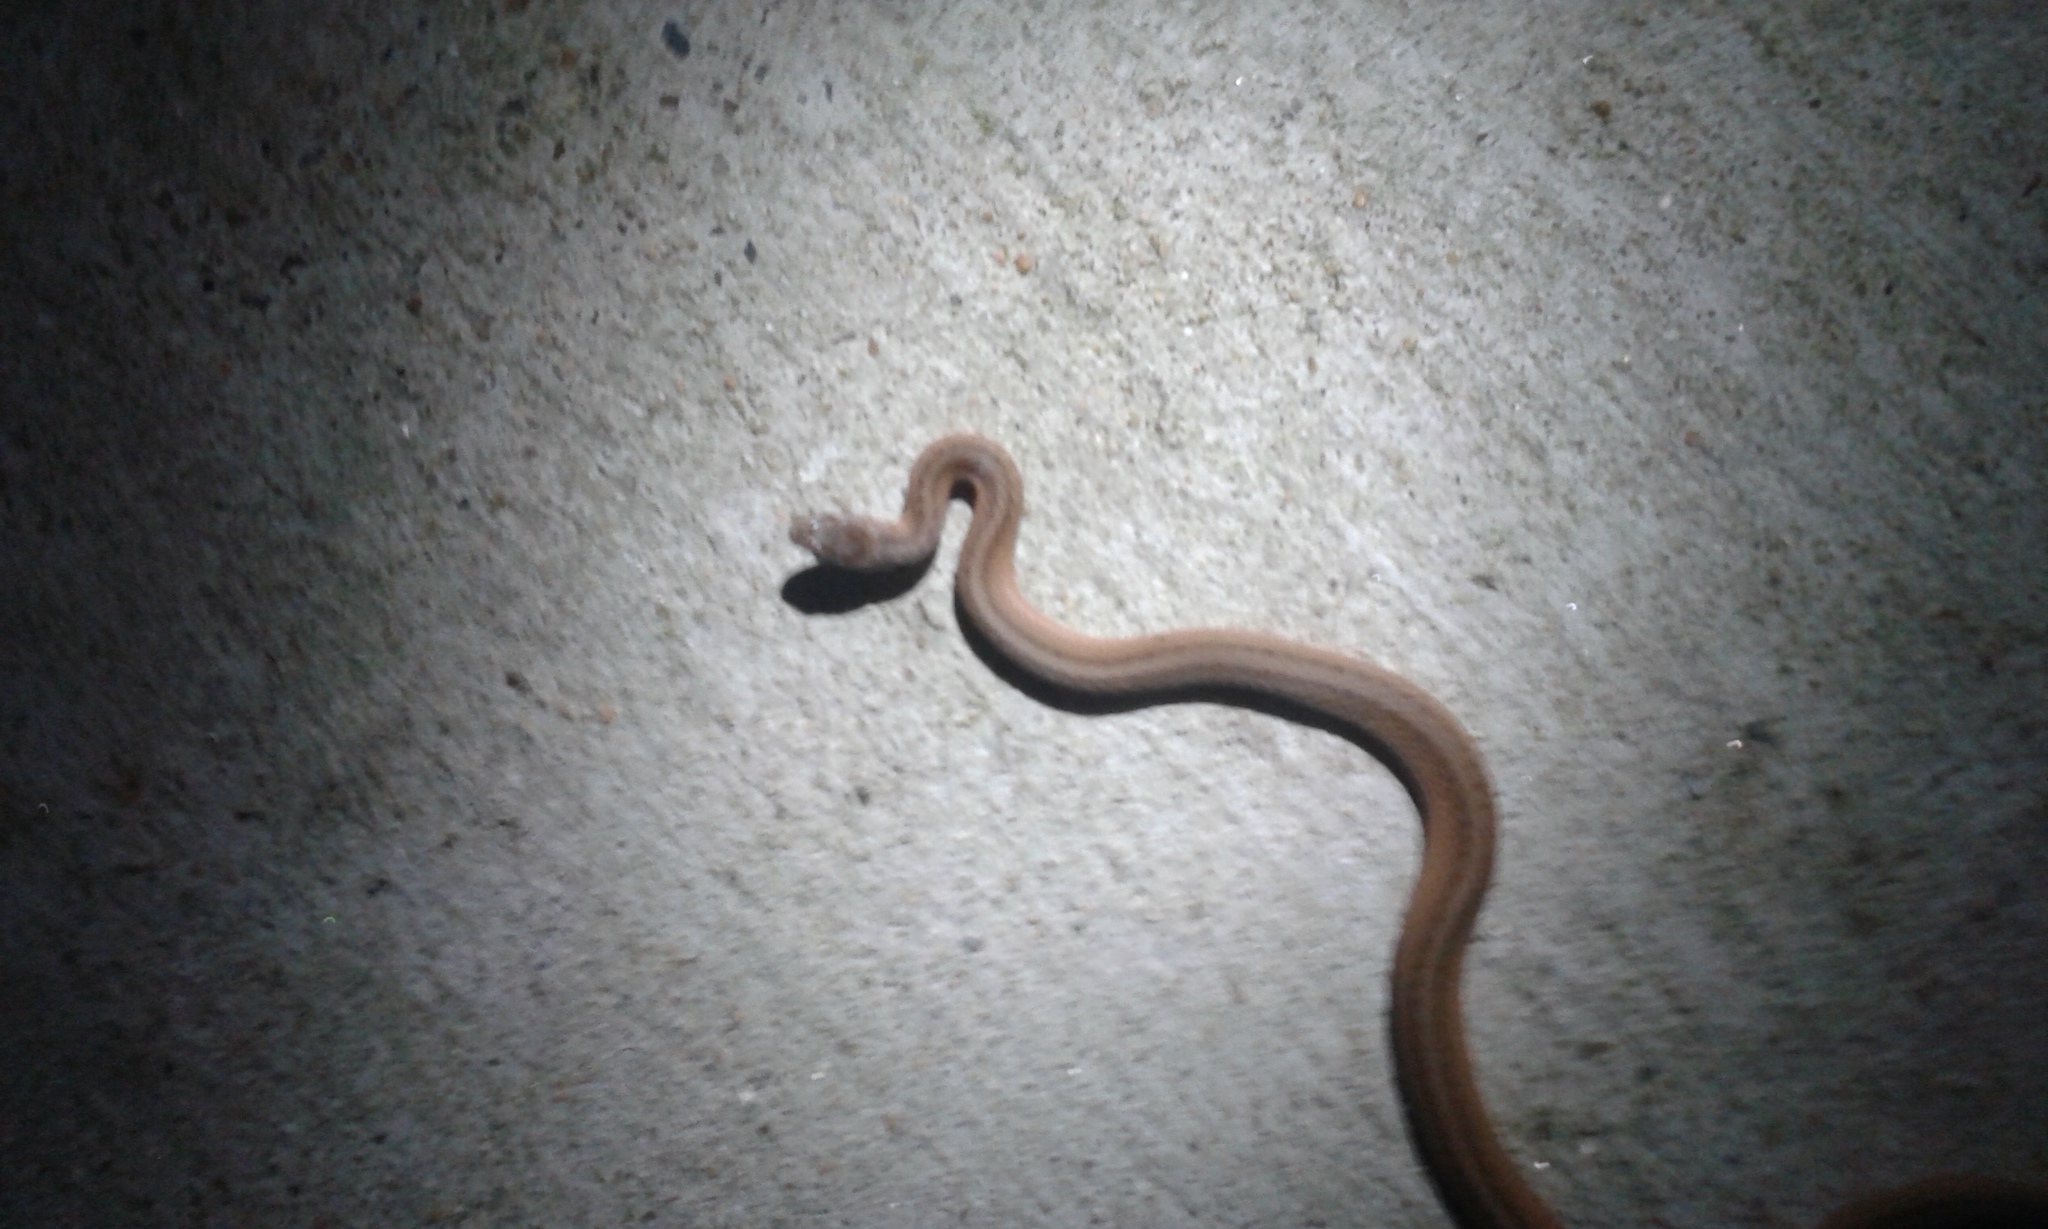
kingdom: Animalia
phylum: Chordata
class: Squamata
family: Colubridae
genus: Storeria
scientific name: Storeria dekayi
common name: (dekay’s) brown snake
